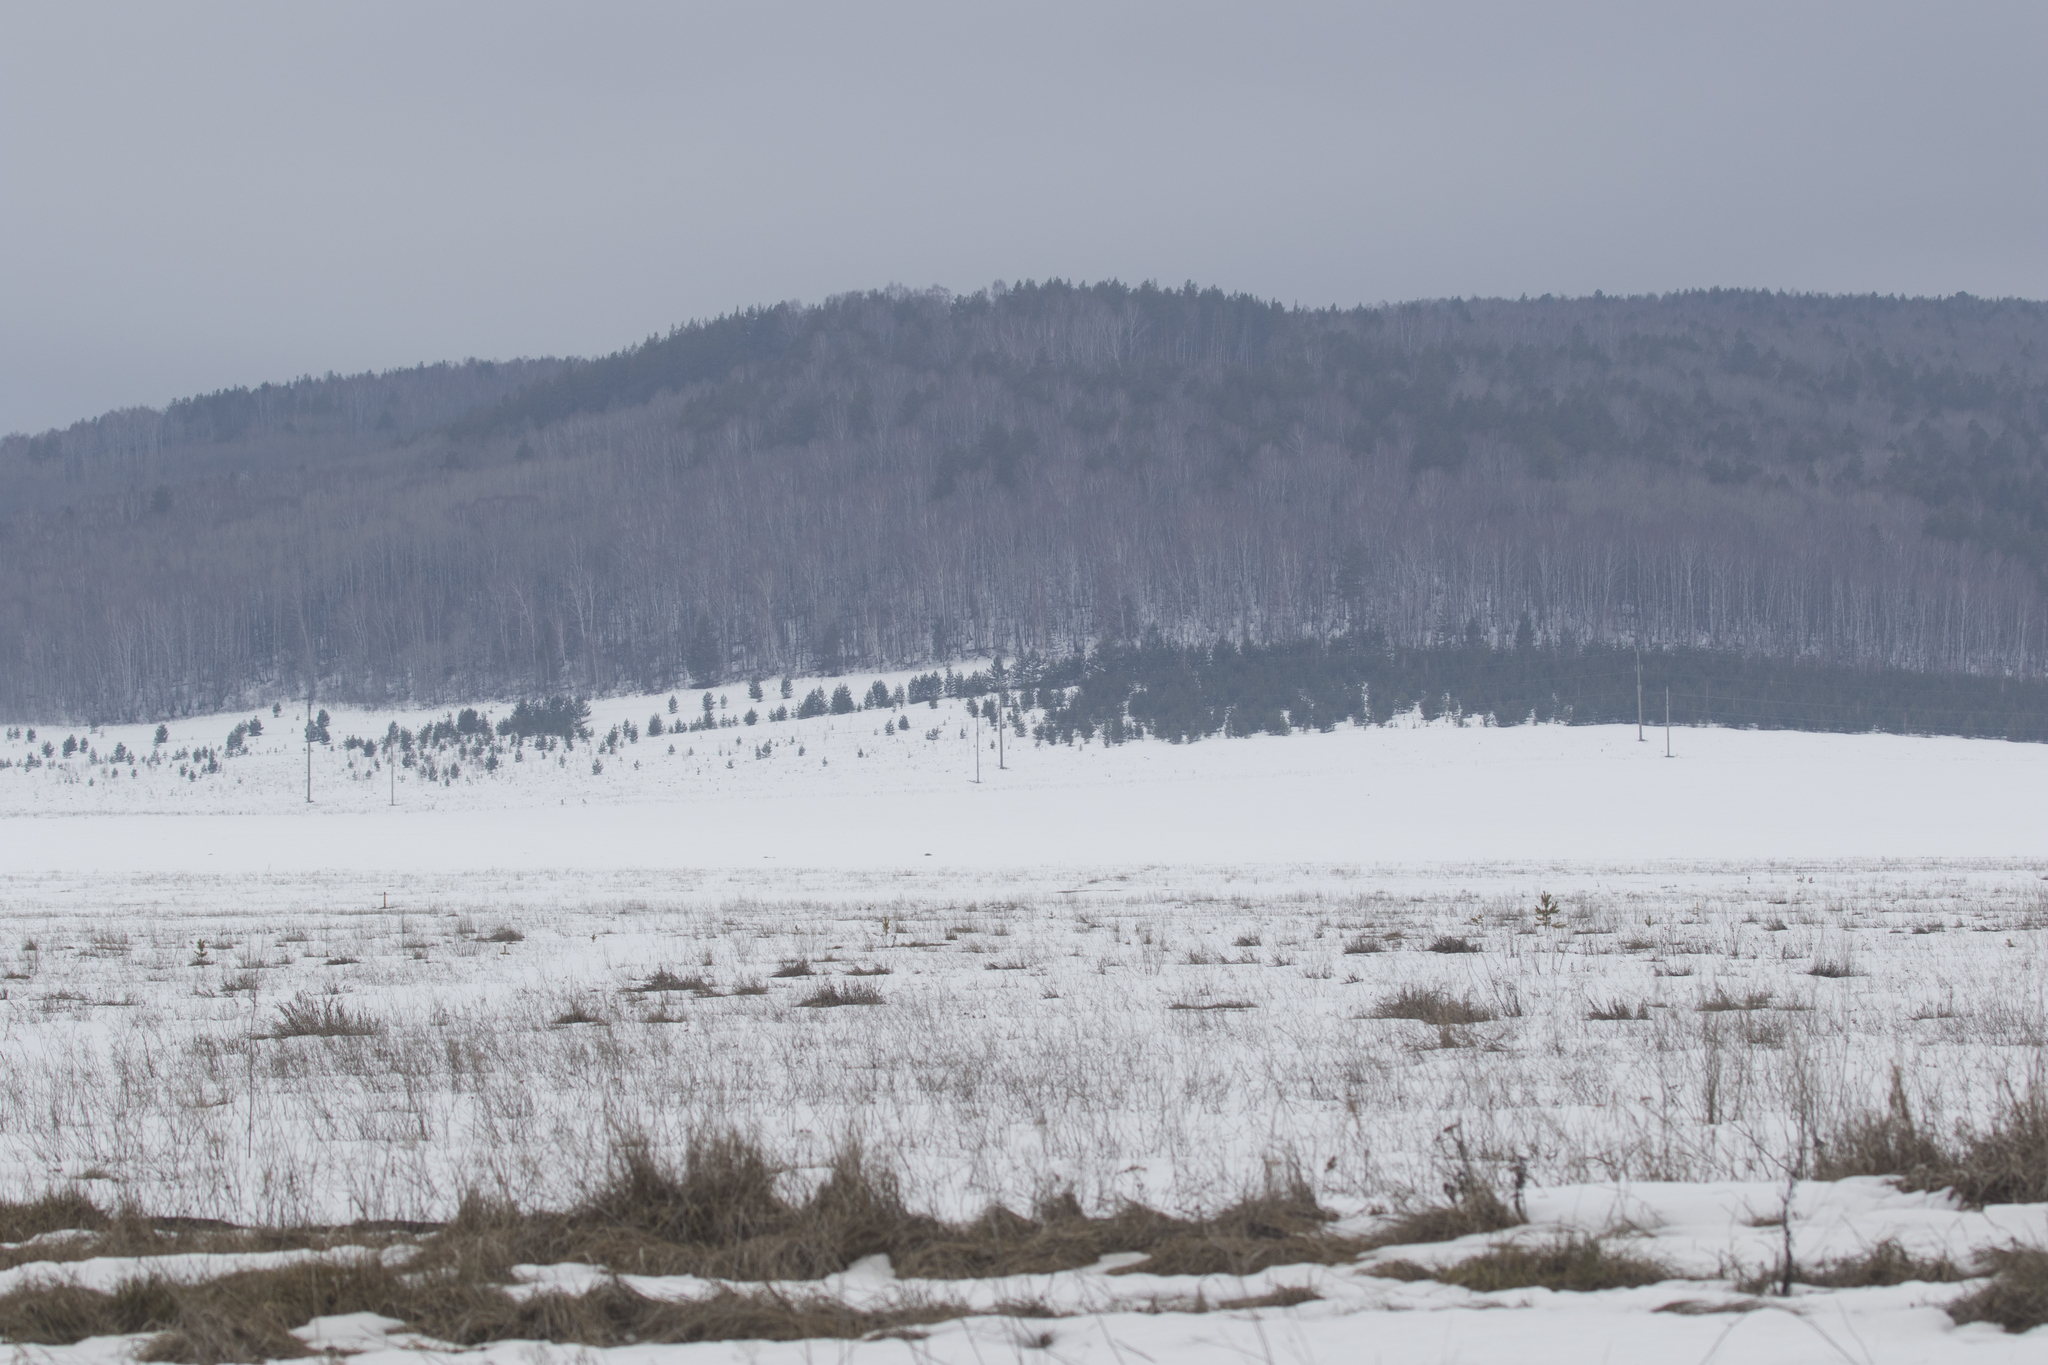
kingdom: Plantae
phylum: Tracheophyta
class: Pinopsida
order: Pinales
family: Pinaceae
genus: Pinus
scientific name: Pinus sylvestris
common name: Scots pine
